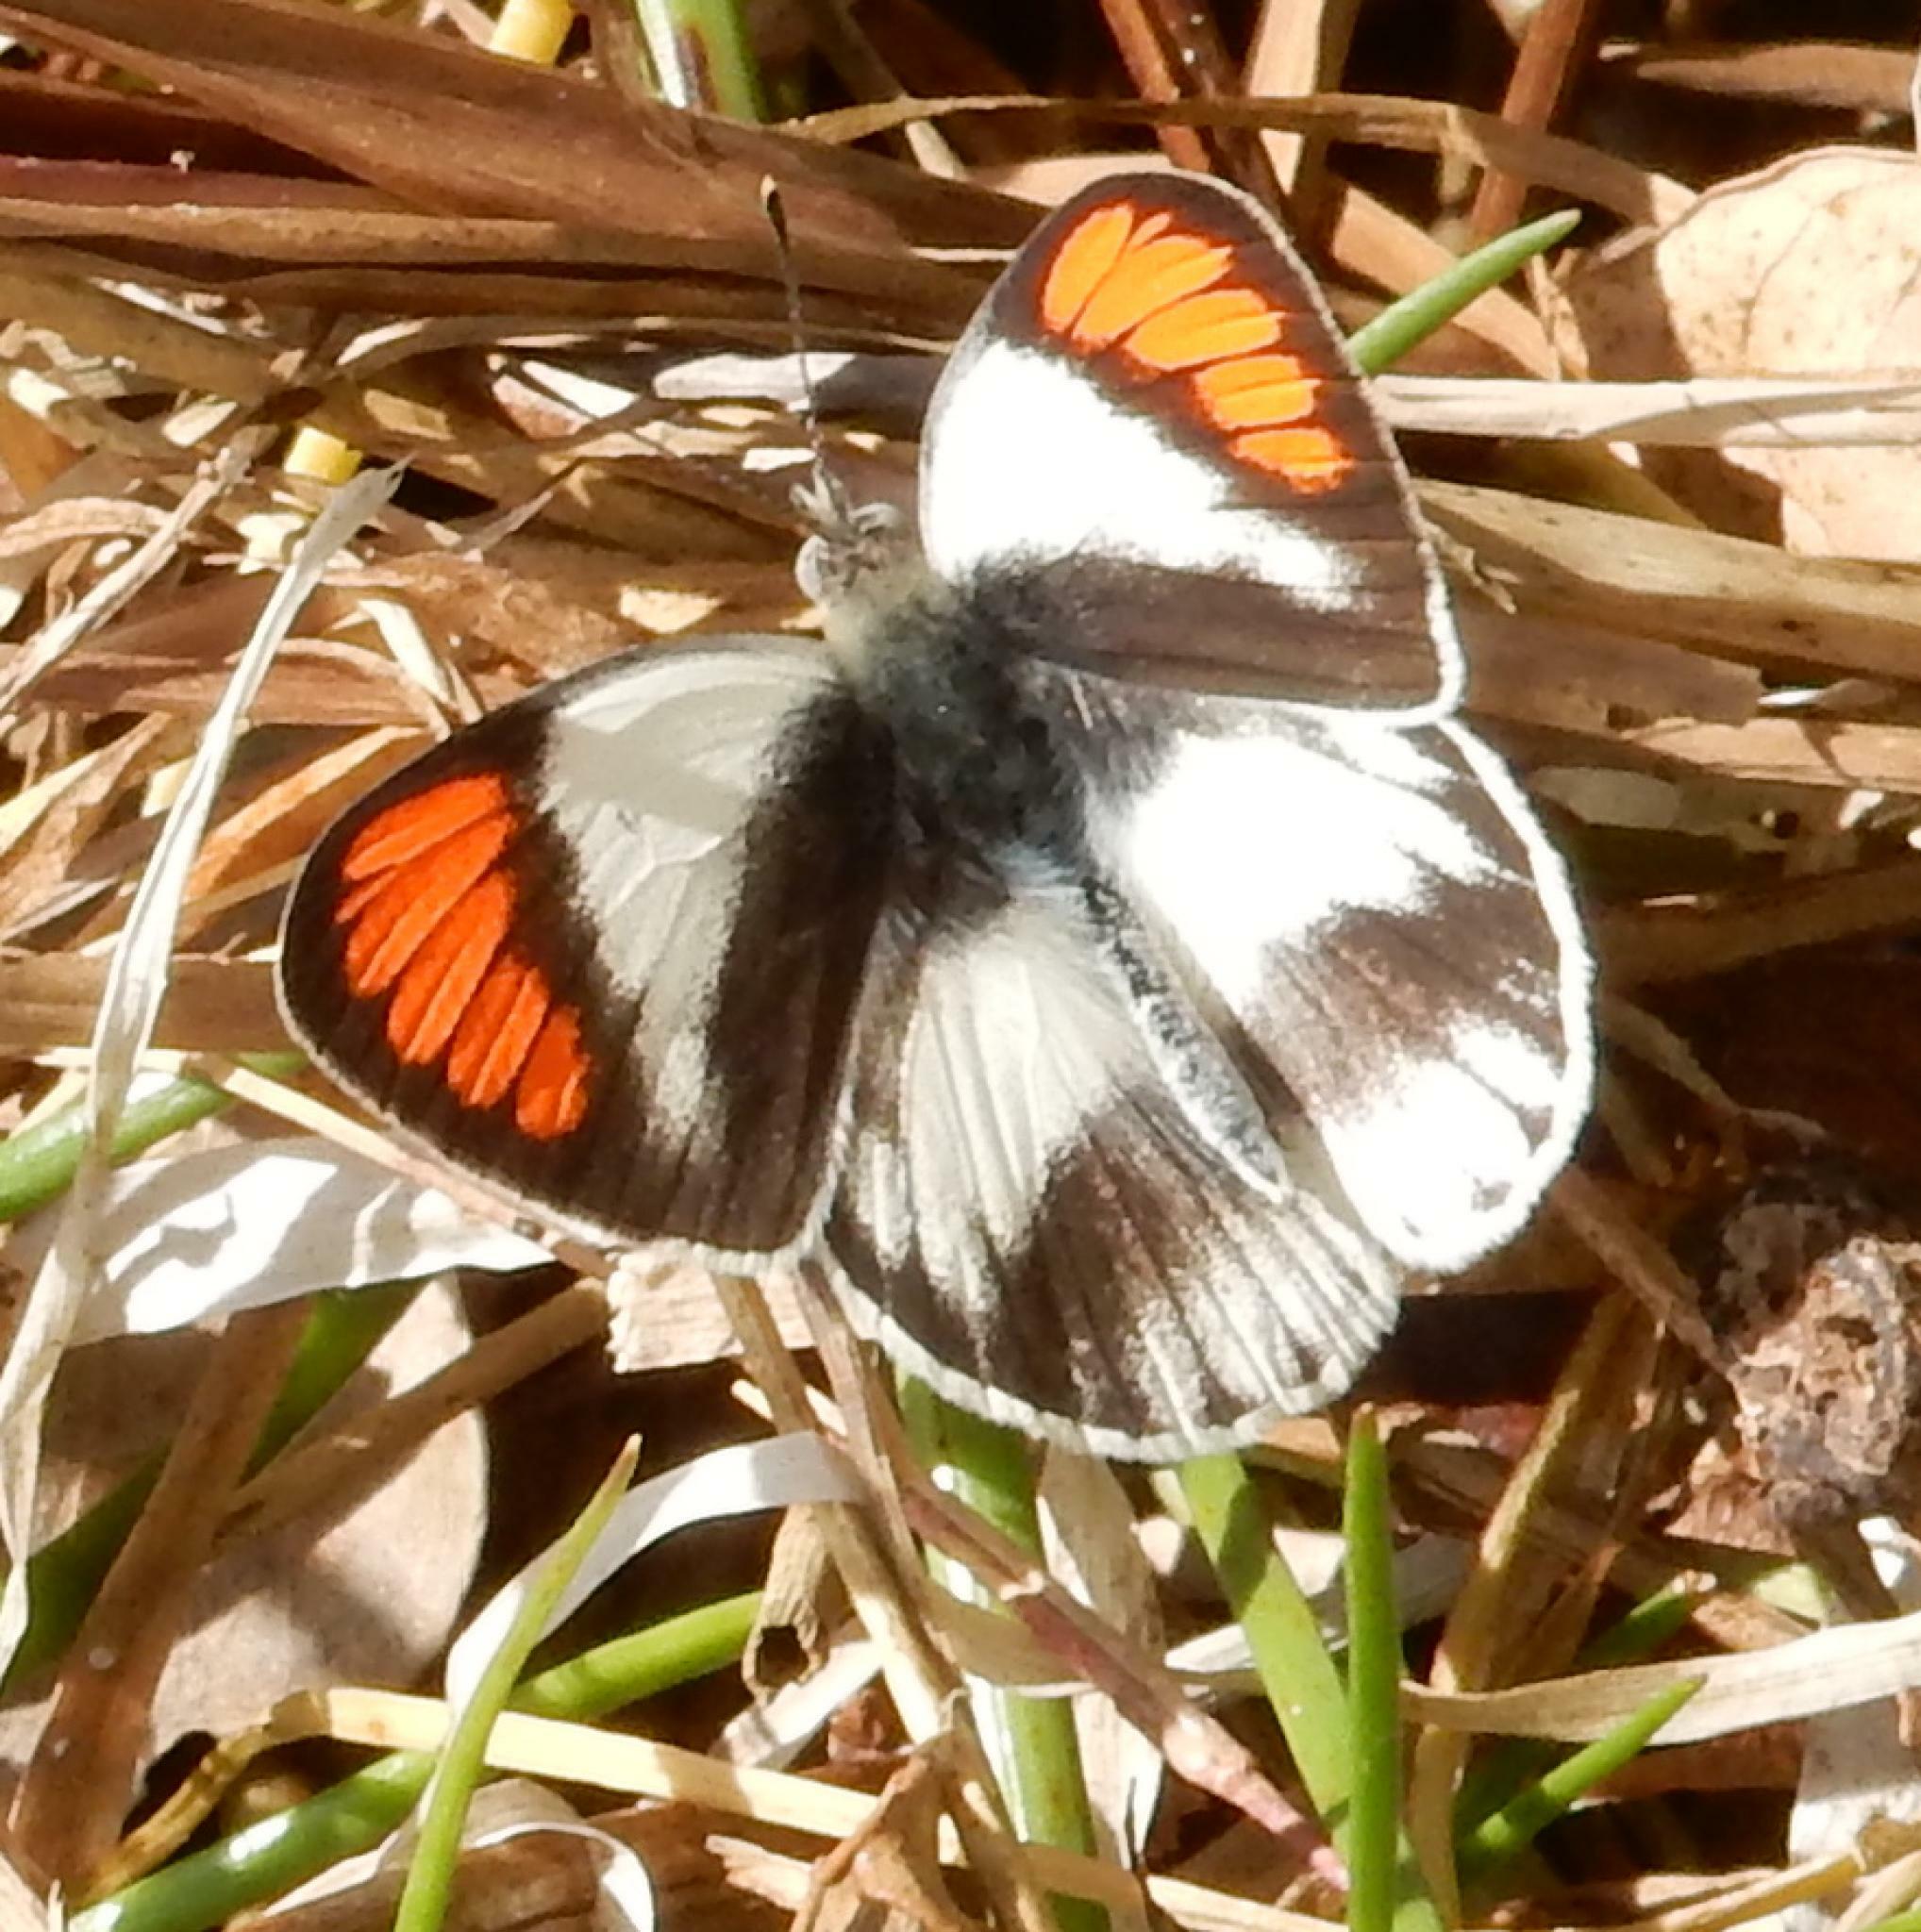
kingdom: Animalia
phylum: Arthropoda
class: Insecta
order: Lepidoptera
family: Pieridae
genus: Colotis
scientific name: Colotis euippe
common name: Round-winged orange tip
